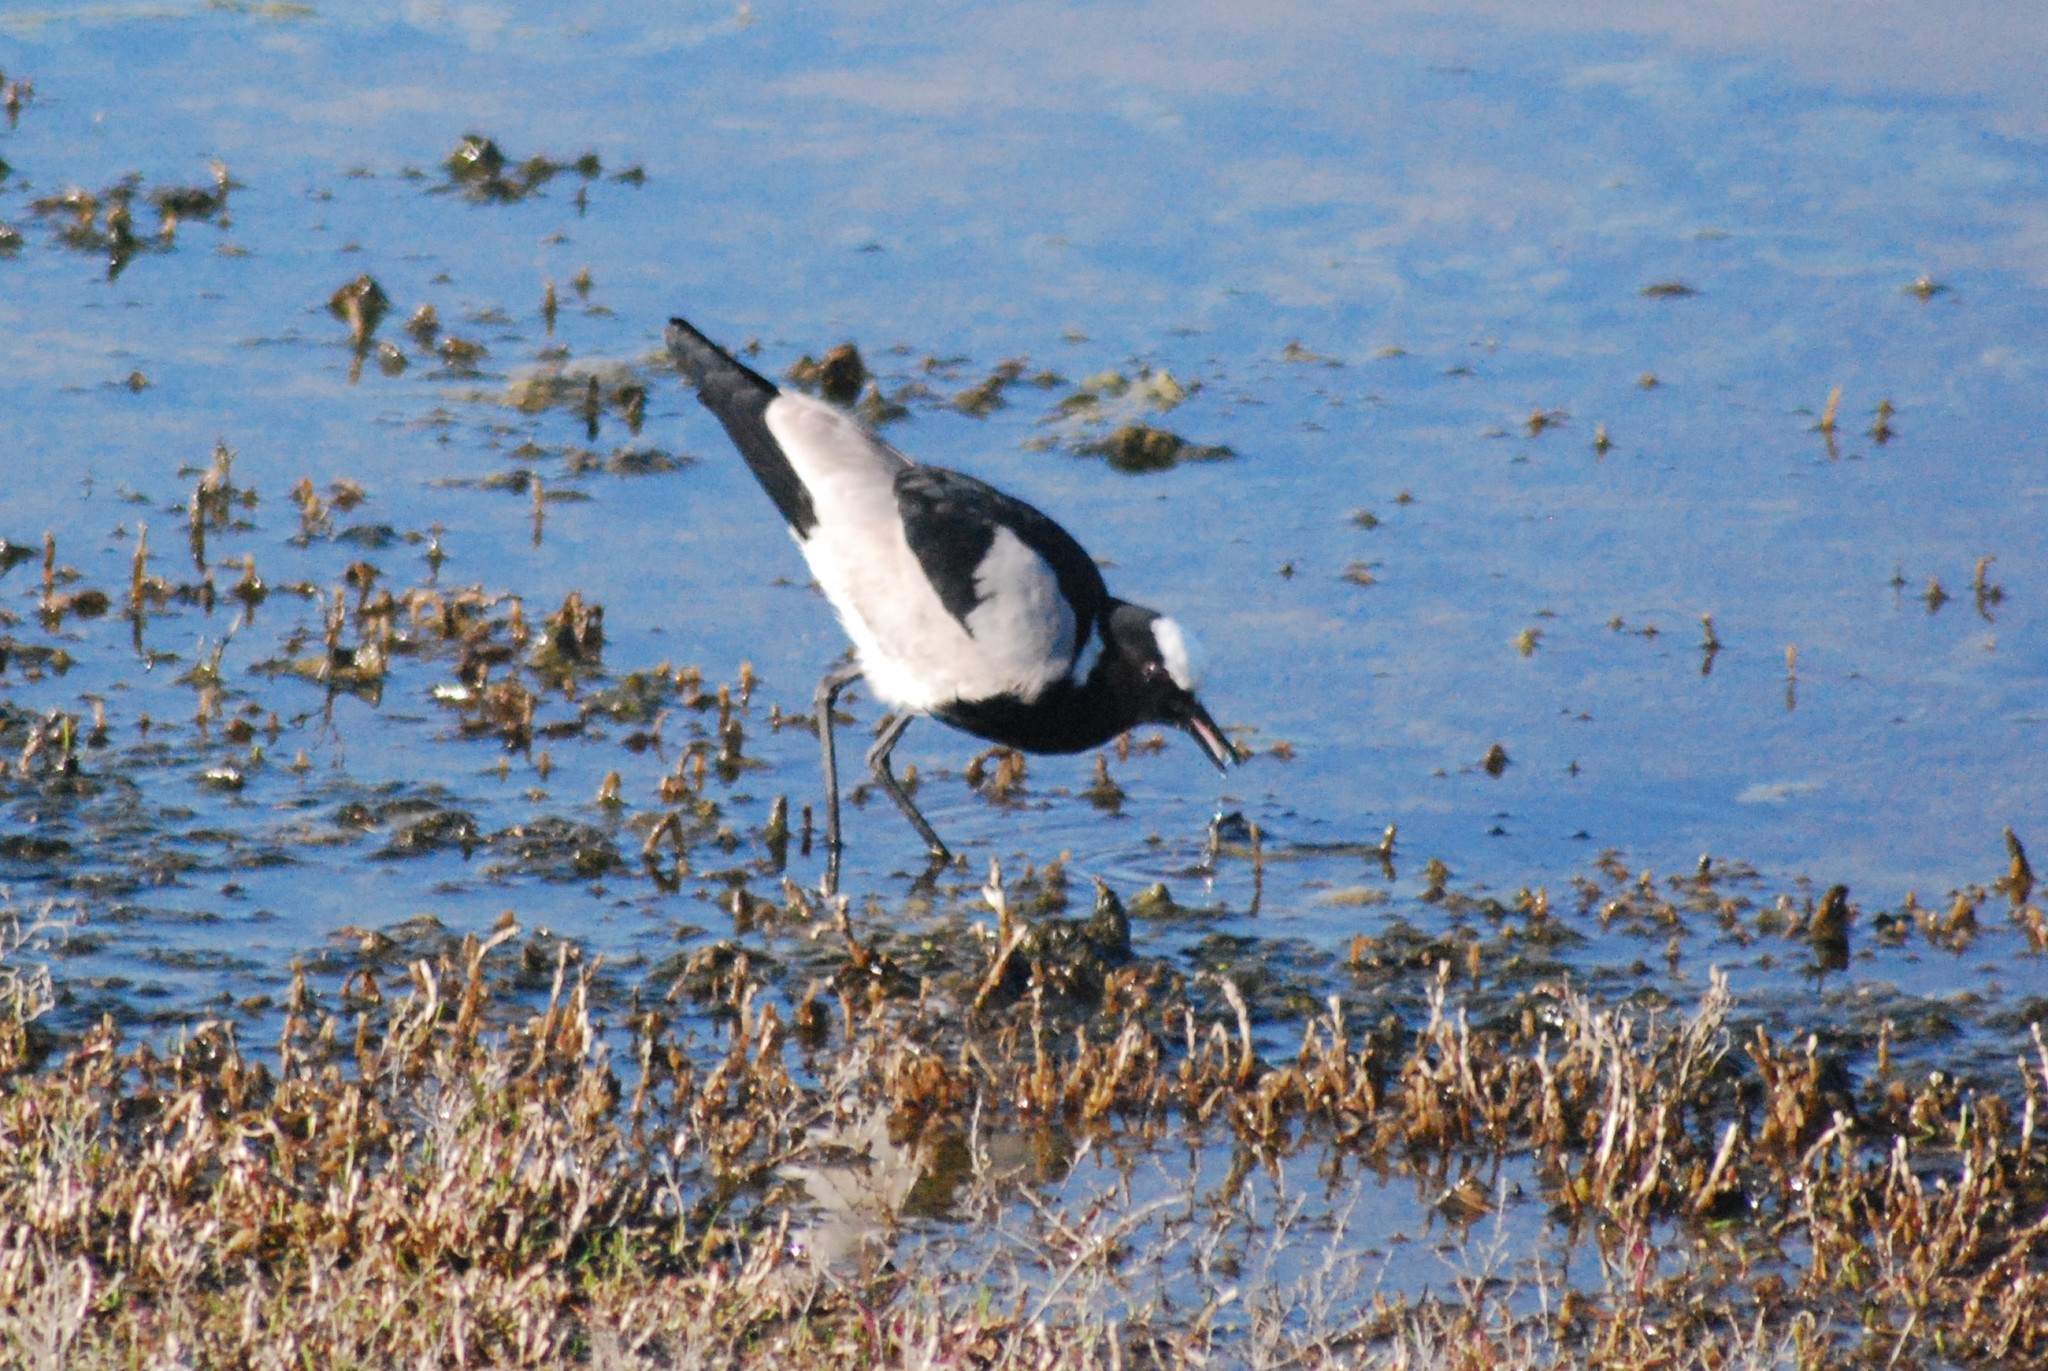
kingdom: Animalia
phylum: Chordata
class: Aves
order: Charadriiformes
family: Charadriidae
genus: Vanellus
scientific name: Vanellus armatus
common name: Blacksmith lapwing
